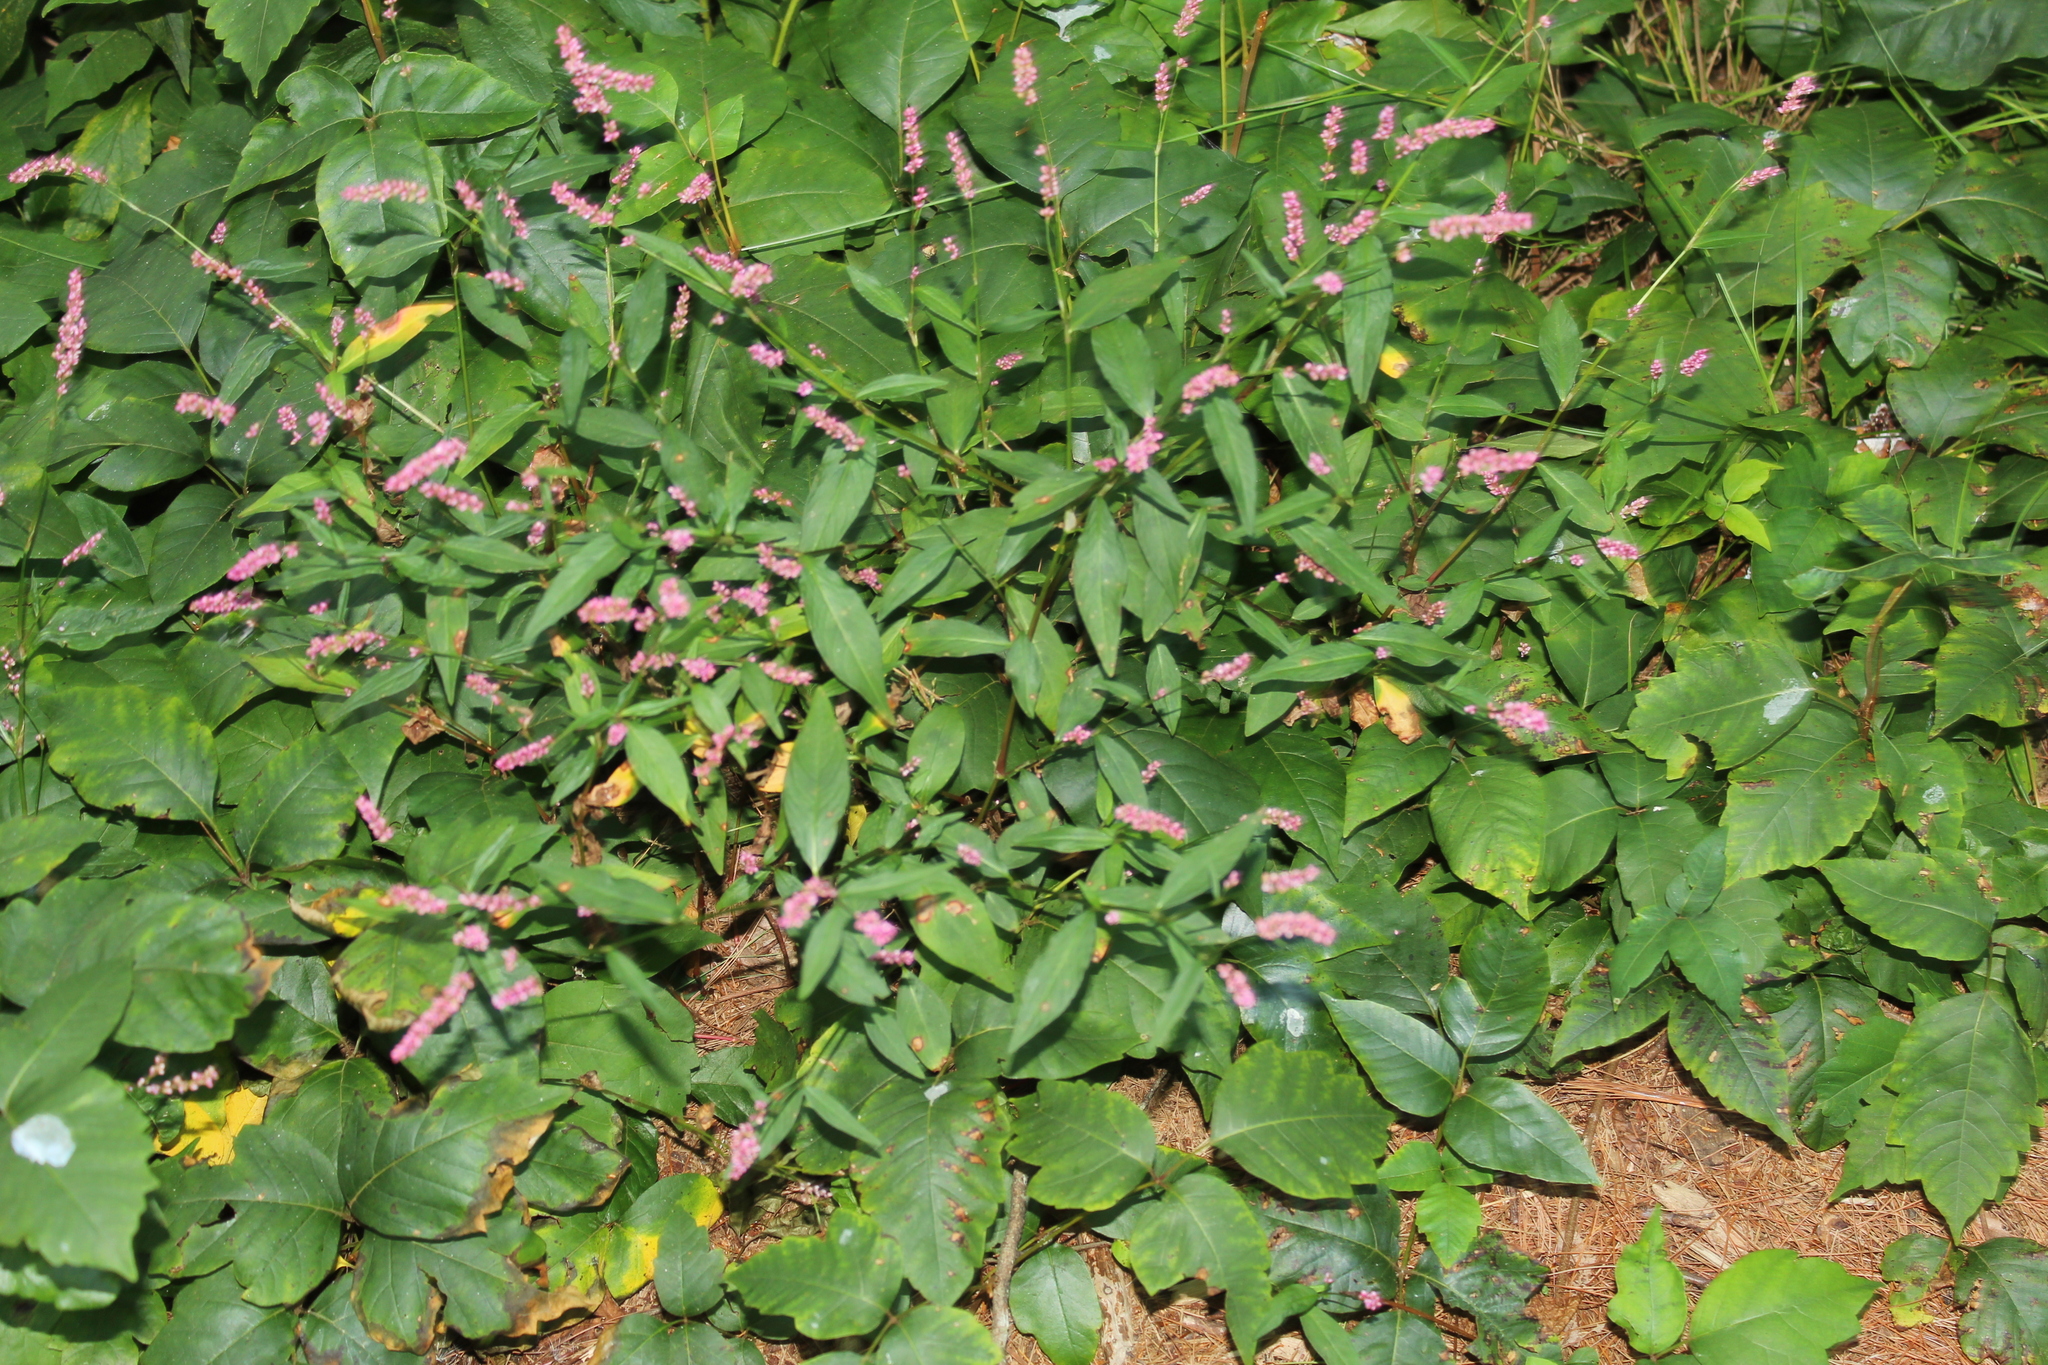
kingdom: Plantae
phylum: Tracheophyta
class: Magnoliopsida
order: Caryophyllales
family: Polygonaceae
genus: Persicaria
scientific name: Persicaria longiseta
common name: Bristly lady's-thumb
